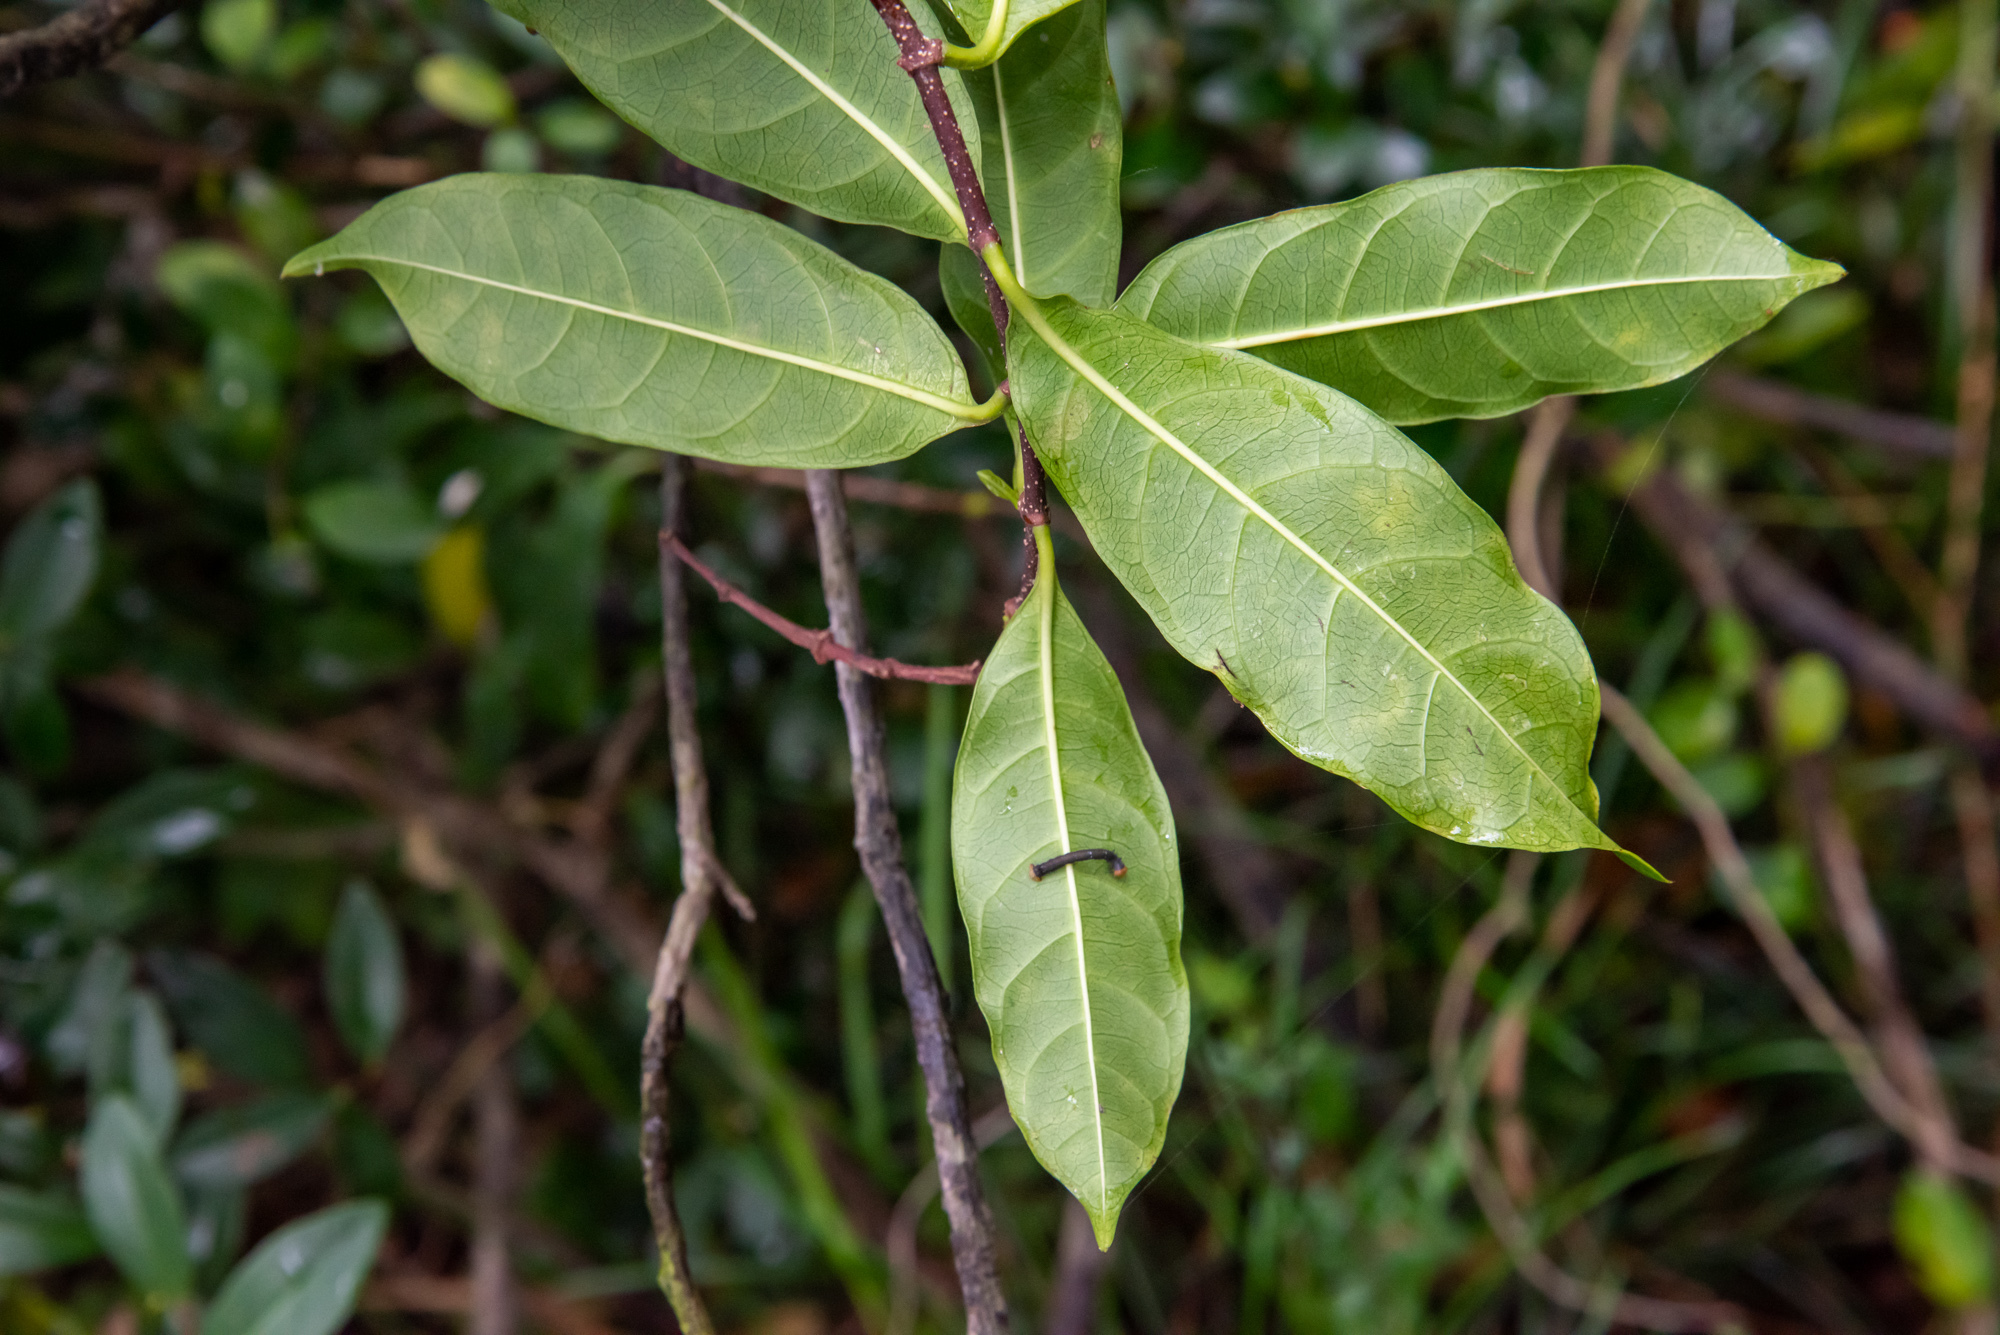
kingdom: Plantae
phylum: Tracheophyta
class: Magnoliopsida
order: Gentianales
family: Apocynaceae
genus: Strophanthus
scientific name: Strophanthus divaricatus
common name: Goat-horns
